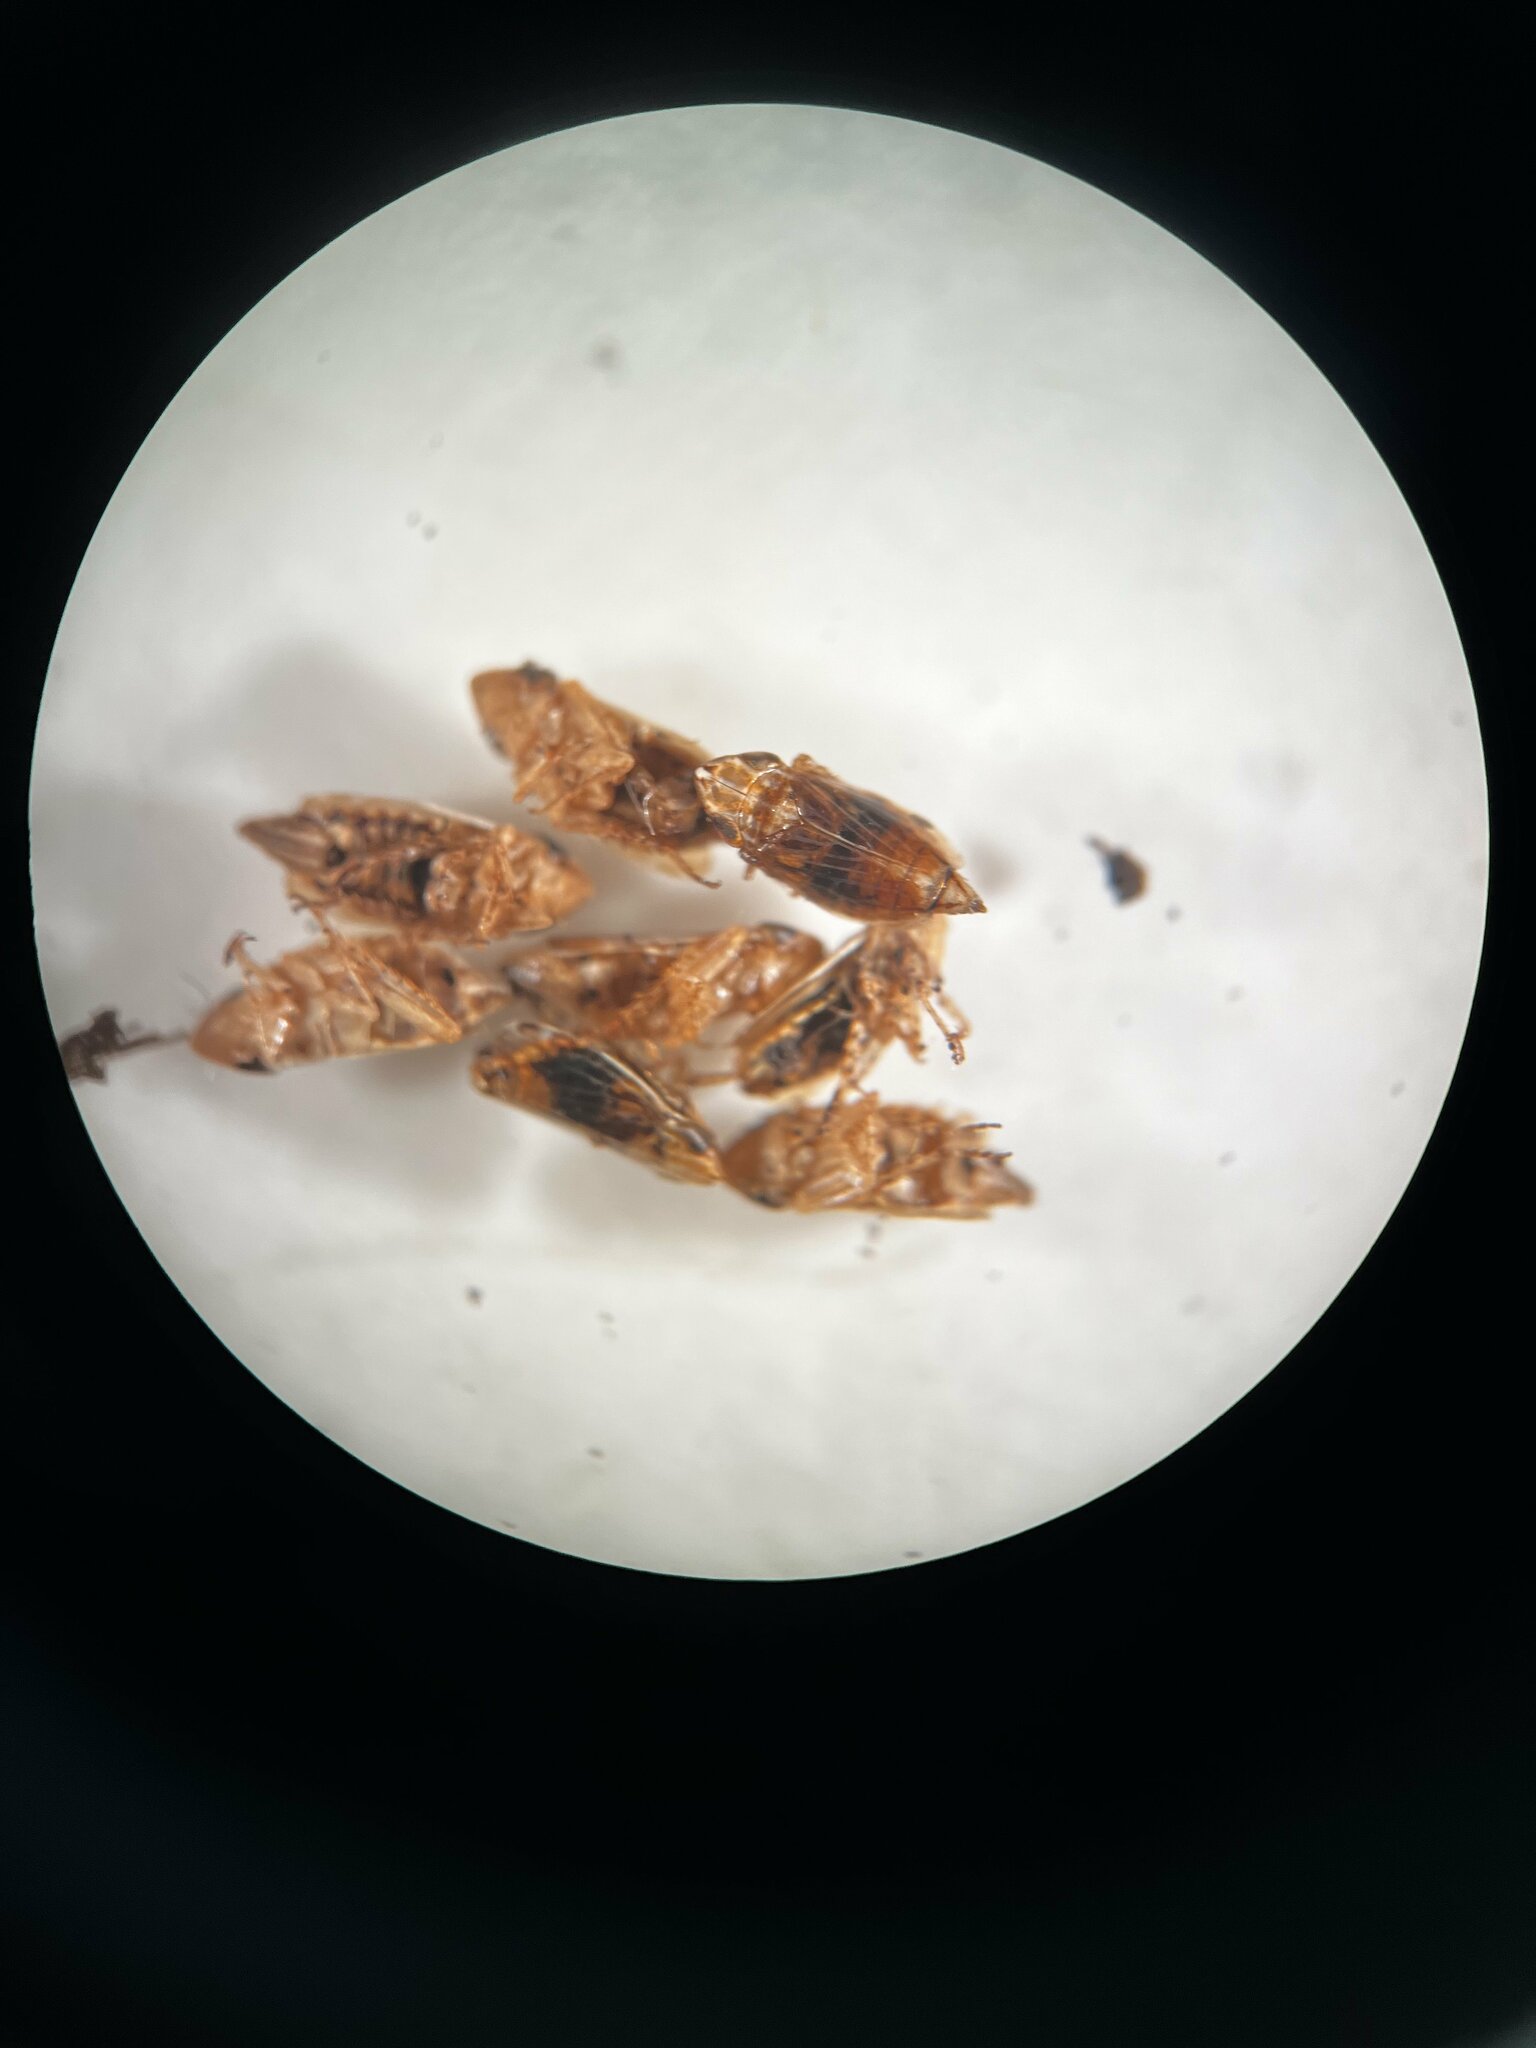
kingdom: Animalia
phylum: Arthropoda
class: Insecta
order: Hemiptera
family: Cicadellidae
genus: Turrutus
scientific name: Turrutus socialis
